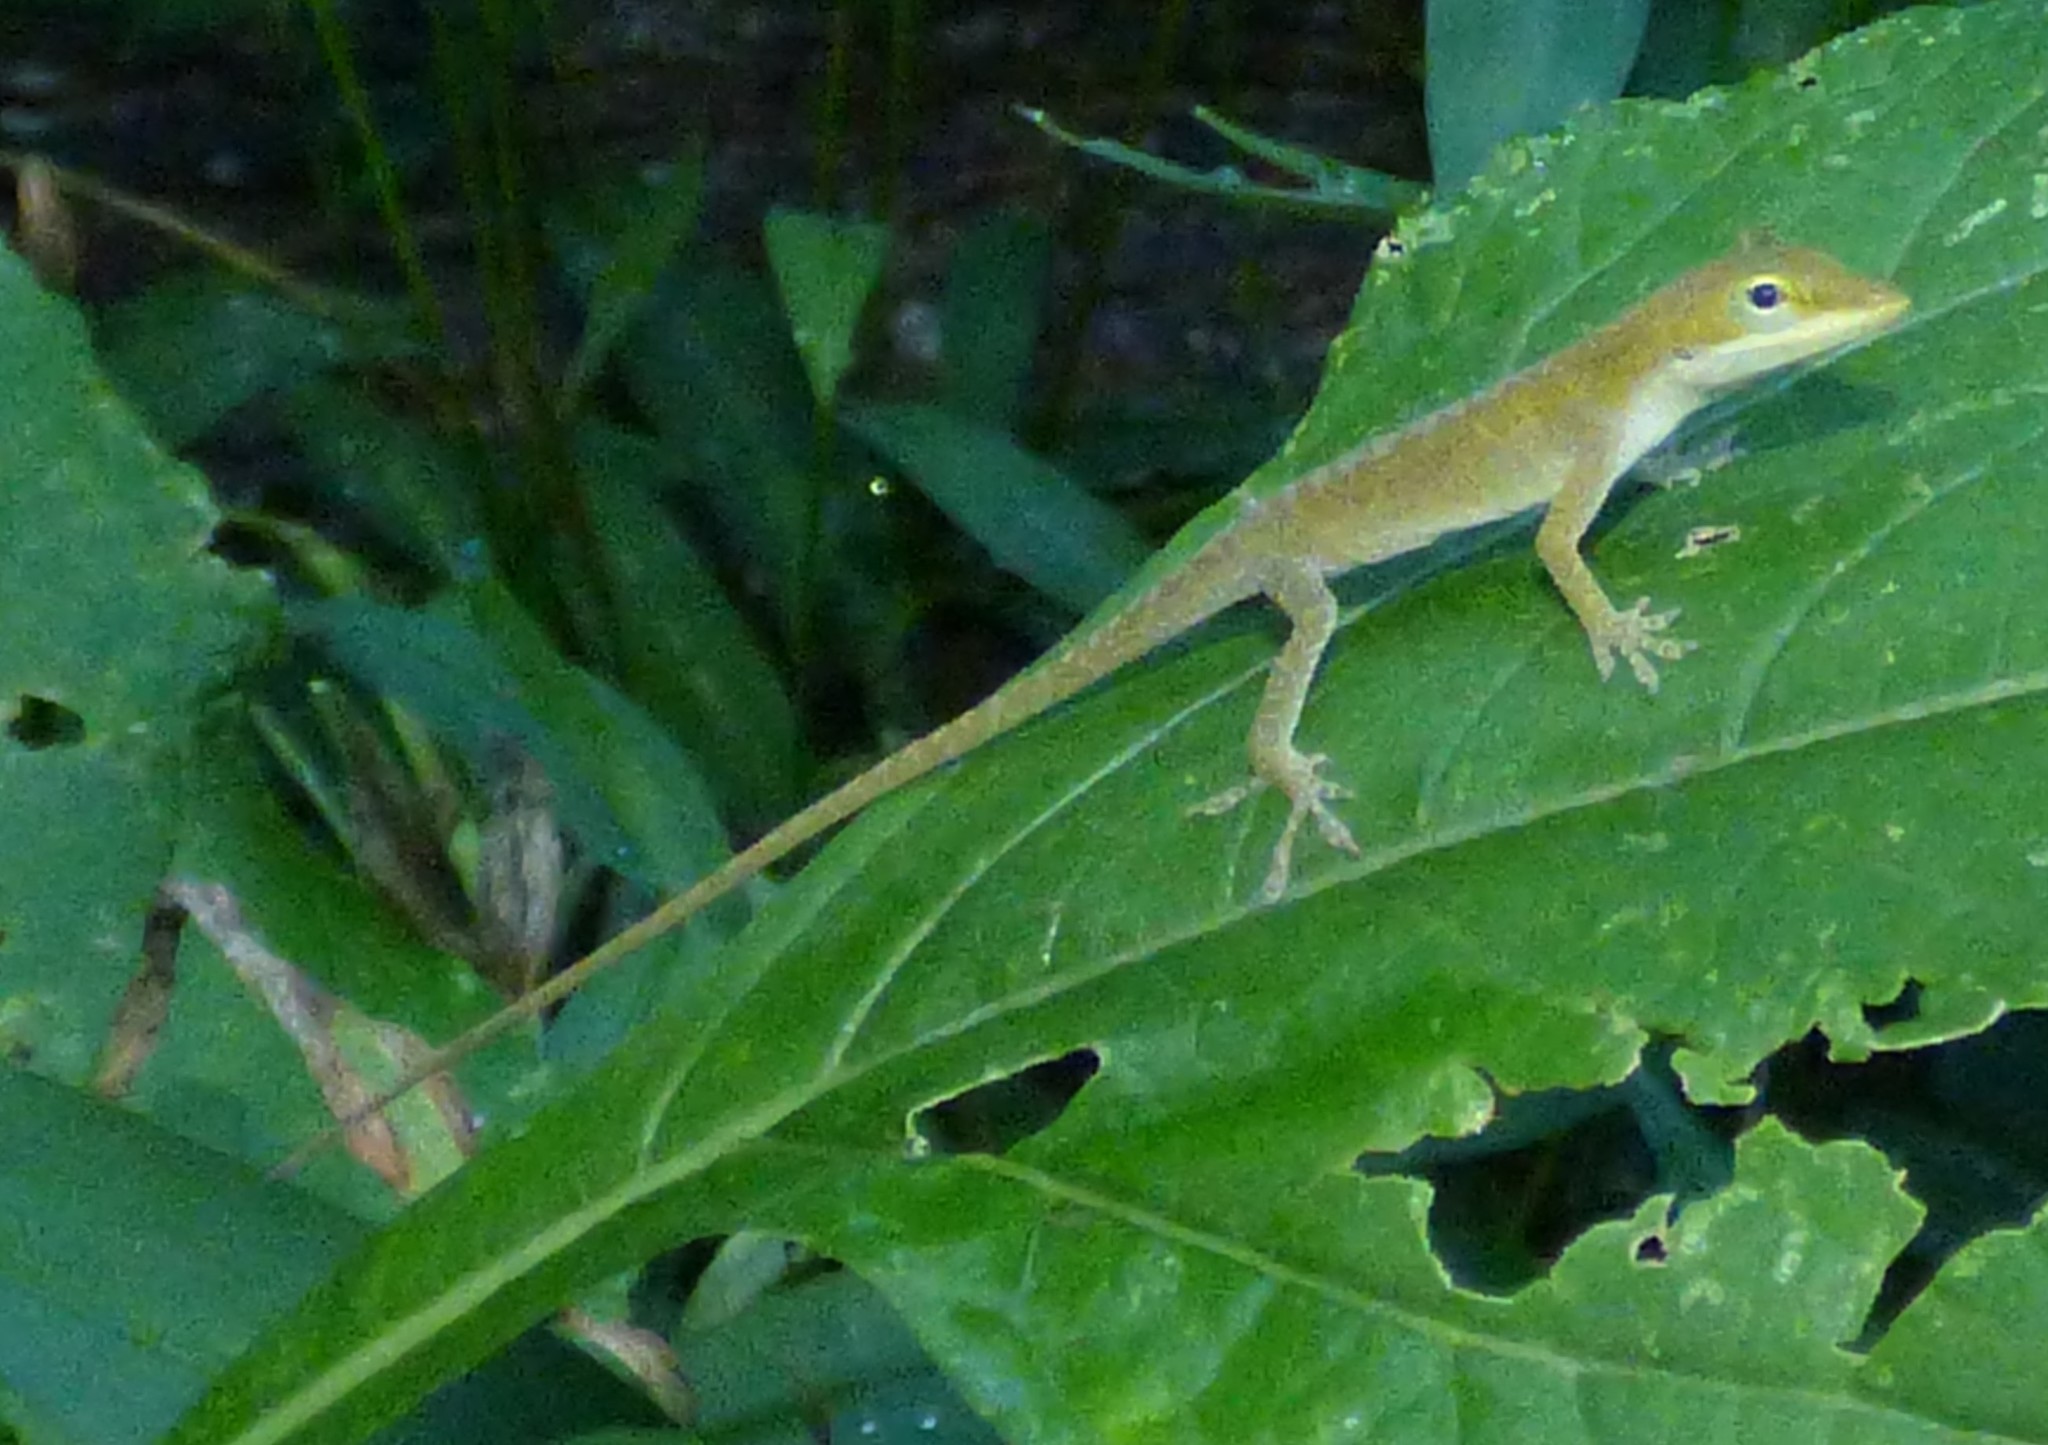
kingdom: Animalia
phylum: Chordata
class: Squamata
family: Dactyloidae
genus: Anolis
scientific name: Anolis carolinensis
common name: Green anole
